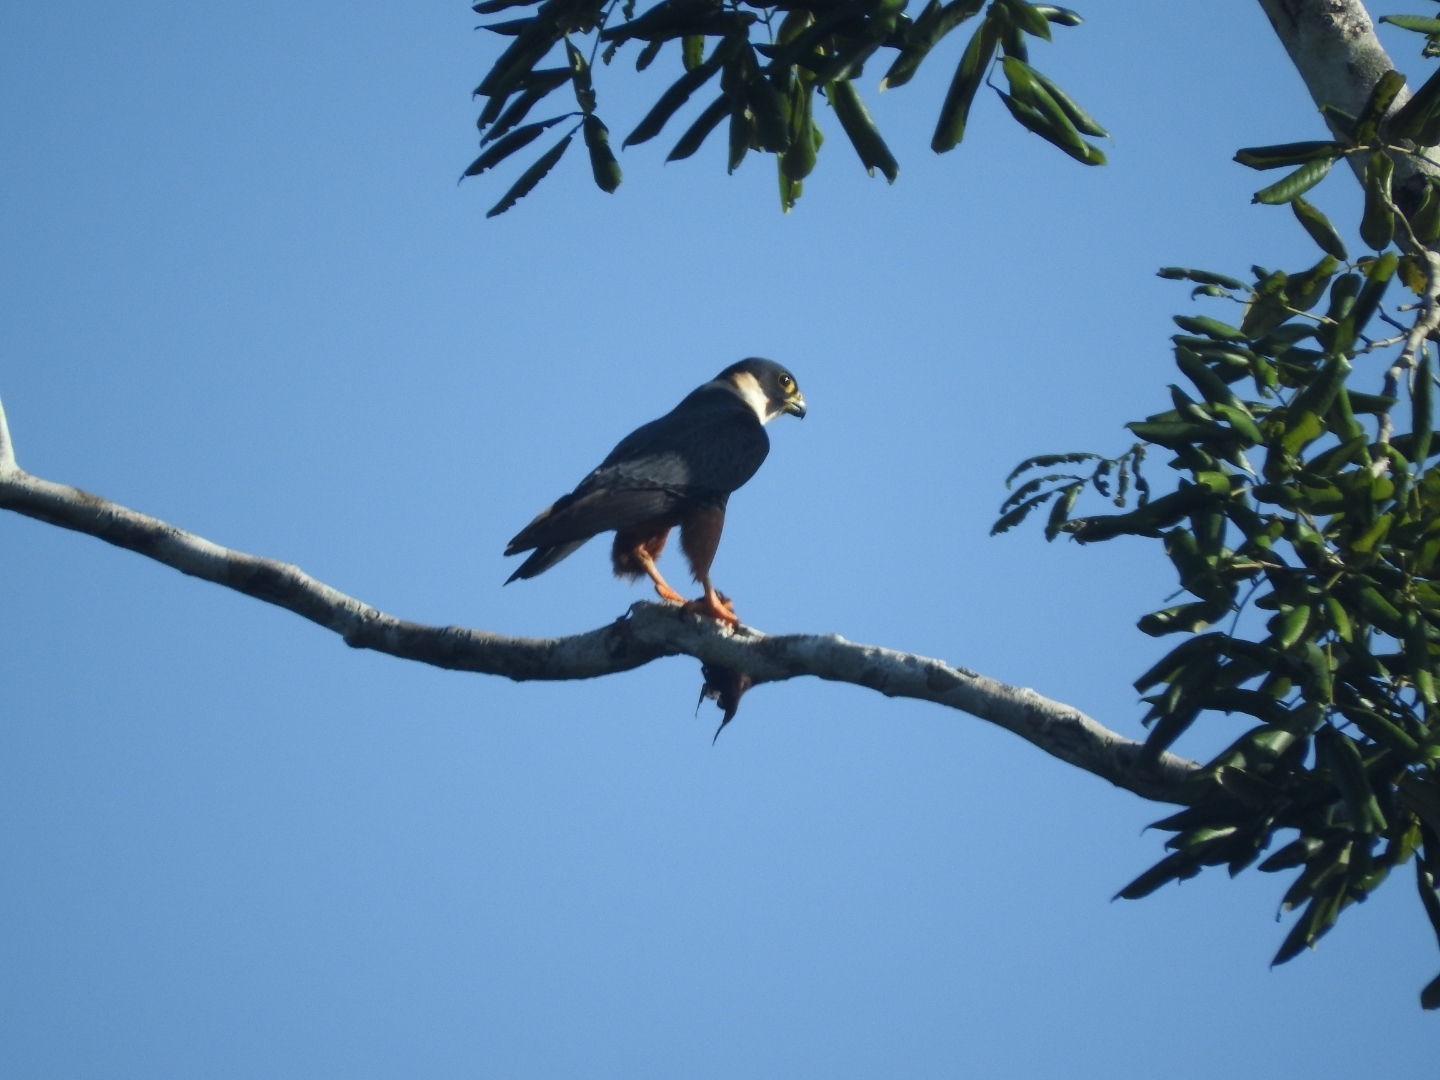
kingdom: Animalia
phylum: Chordata
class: Aves
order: Falconiformes
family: Falconidae
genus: Falco
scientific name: Falco rufigularis
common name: Bat falcon
